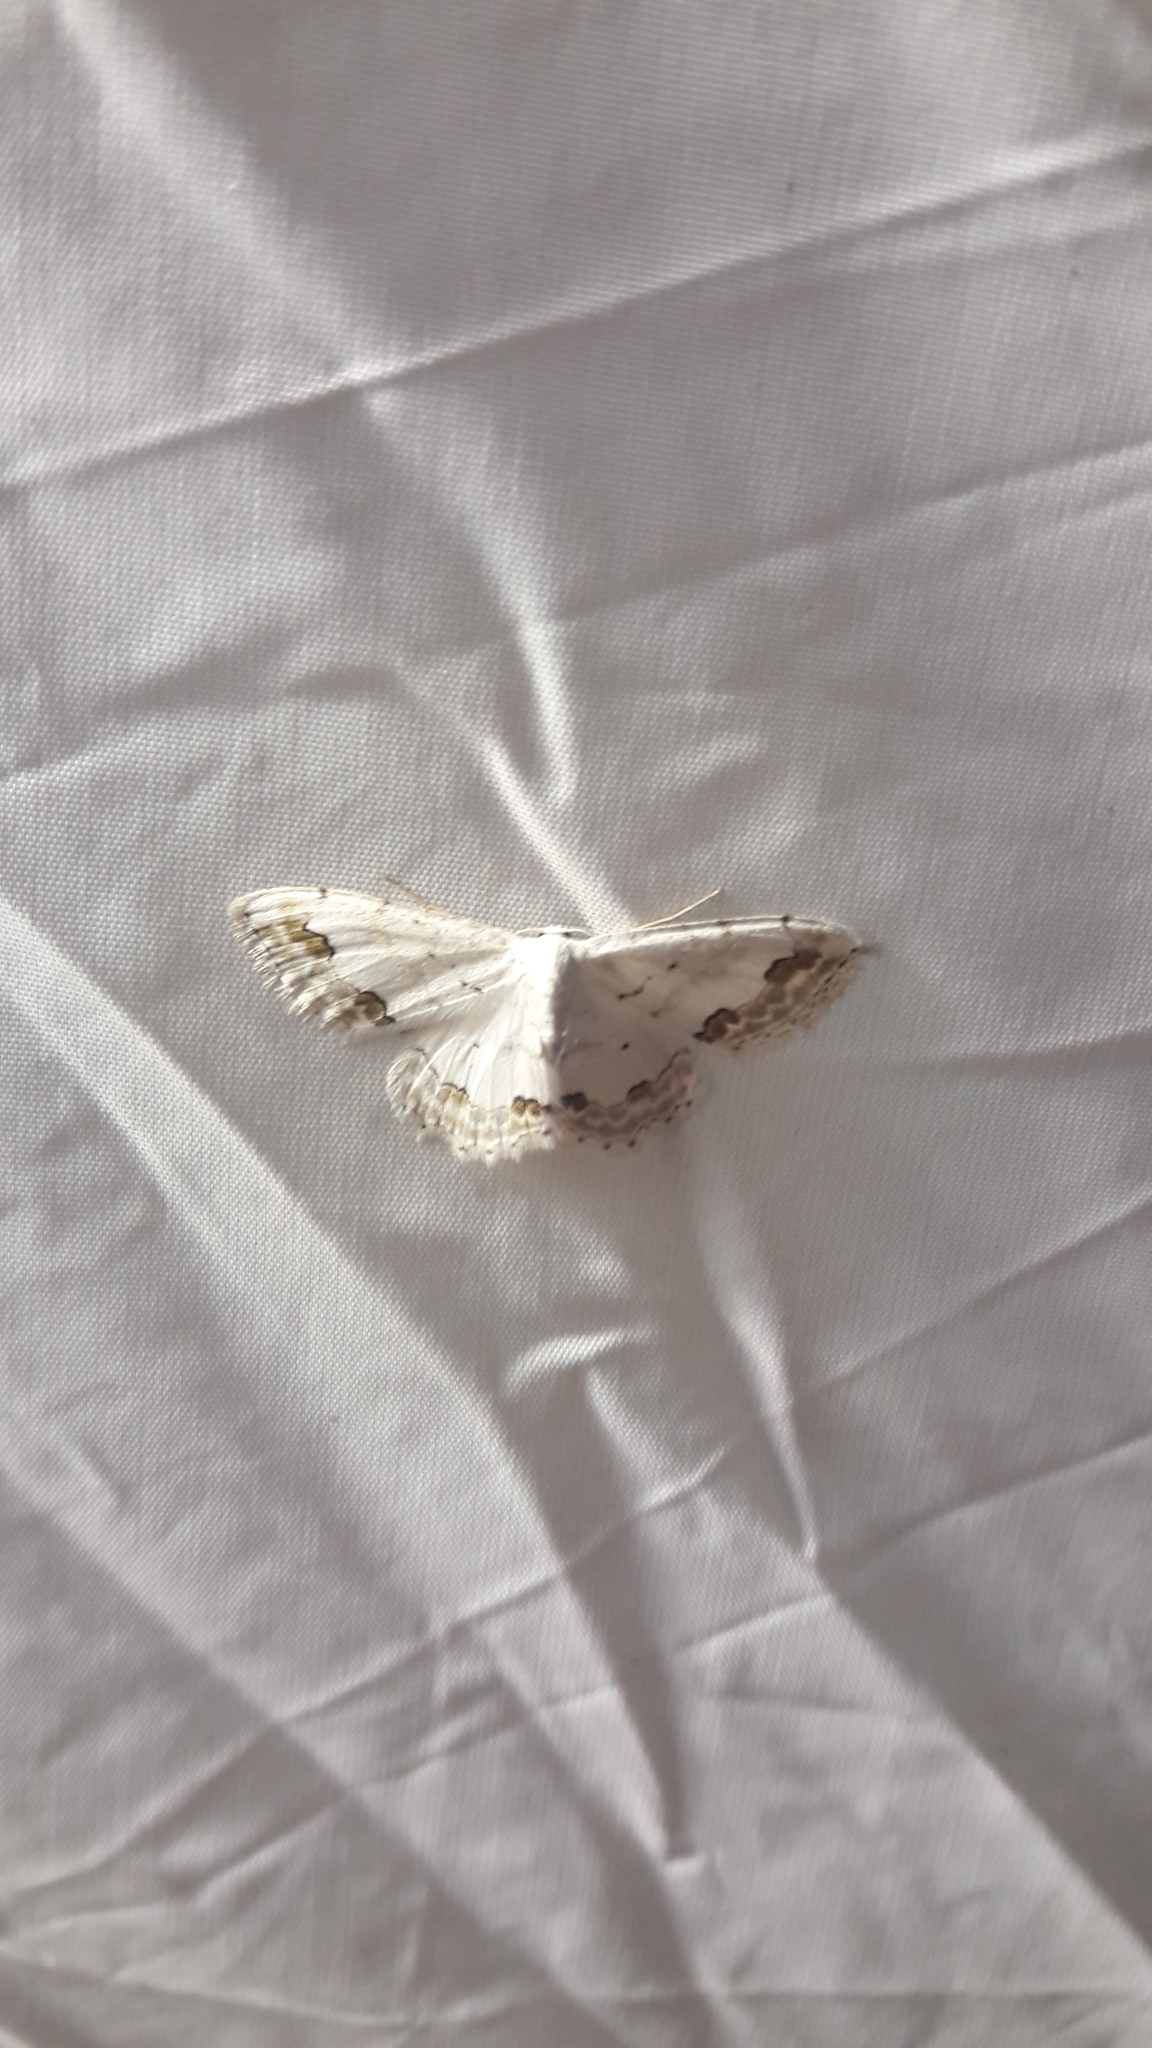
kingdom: Animalia
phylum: Arthropoda
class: Insecta
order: Lepidoptera
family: Geometridae
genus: Scopula
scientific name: Scopula ornata
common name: Lace border
